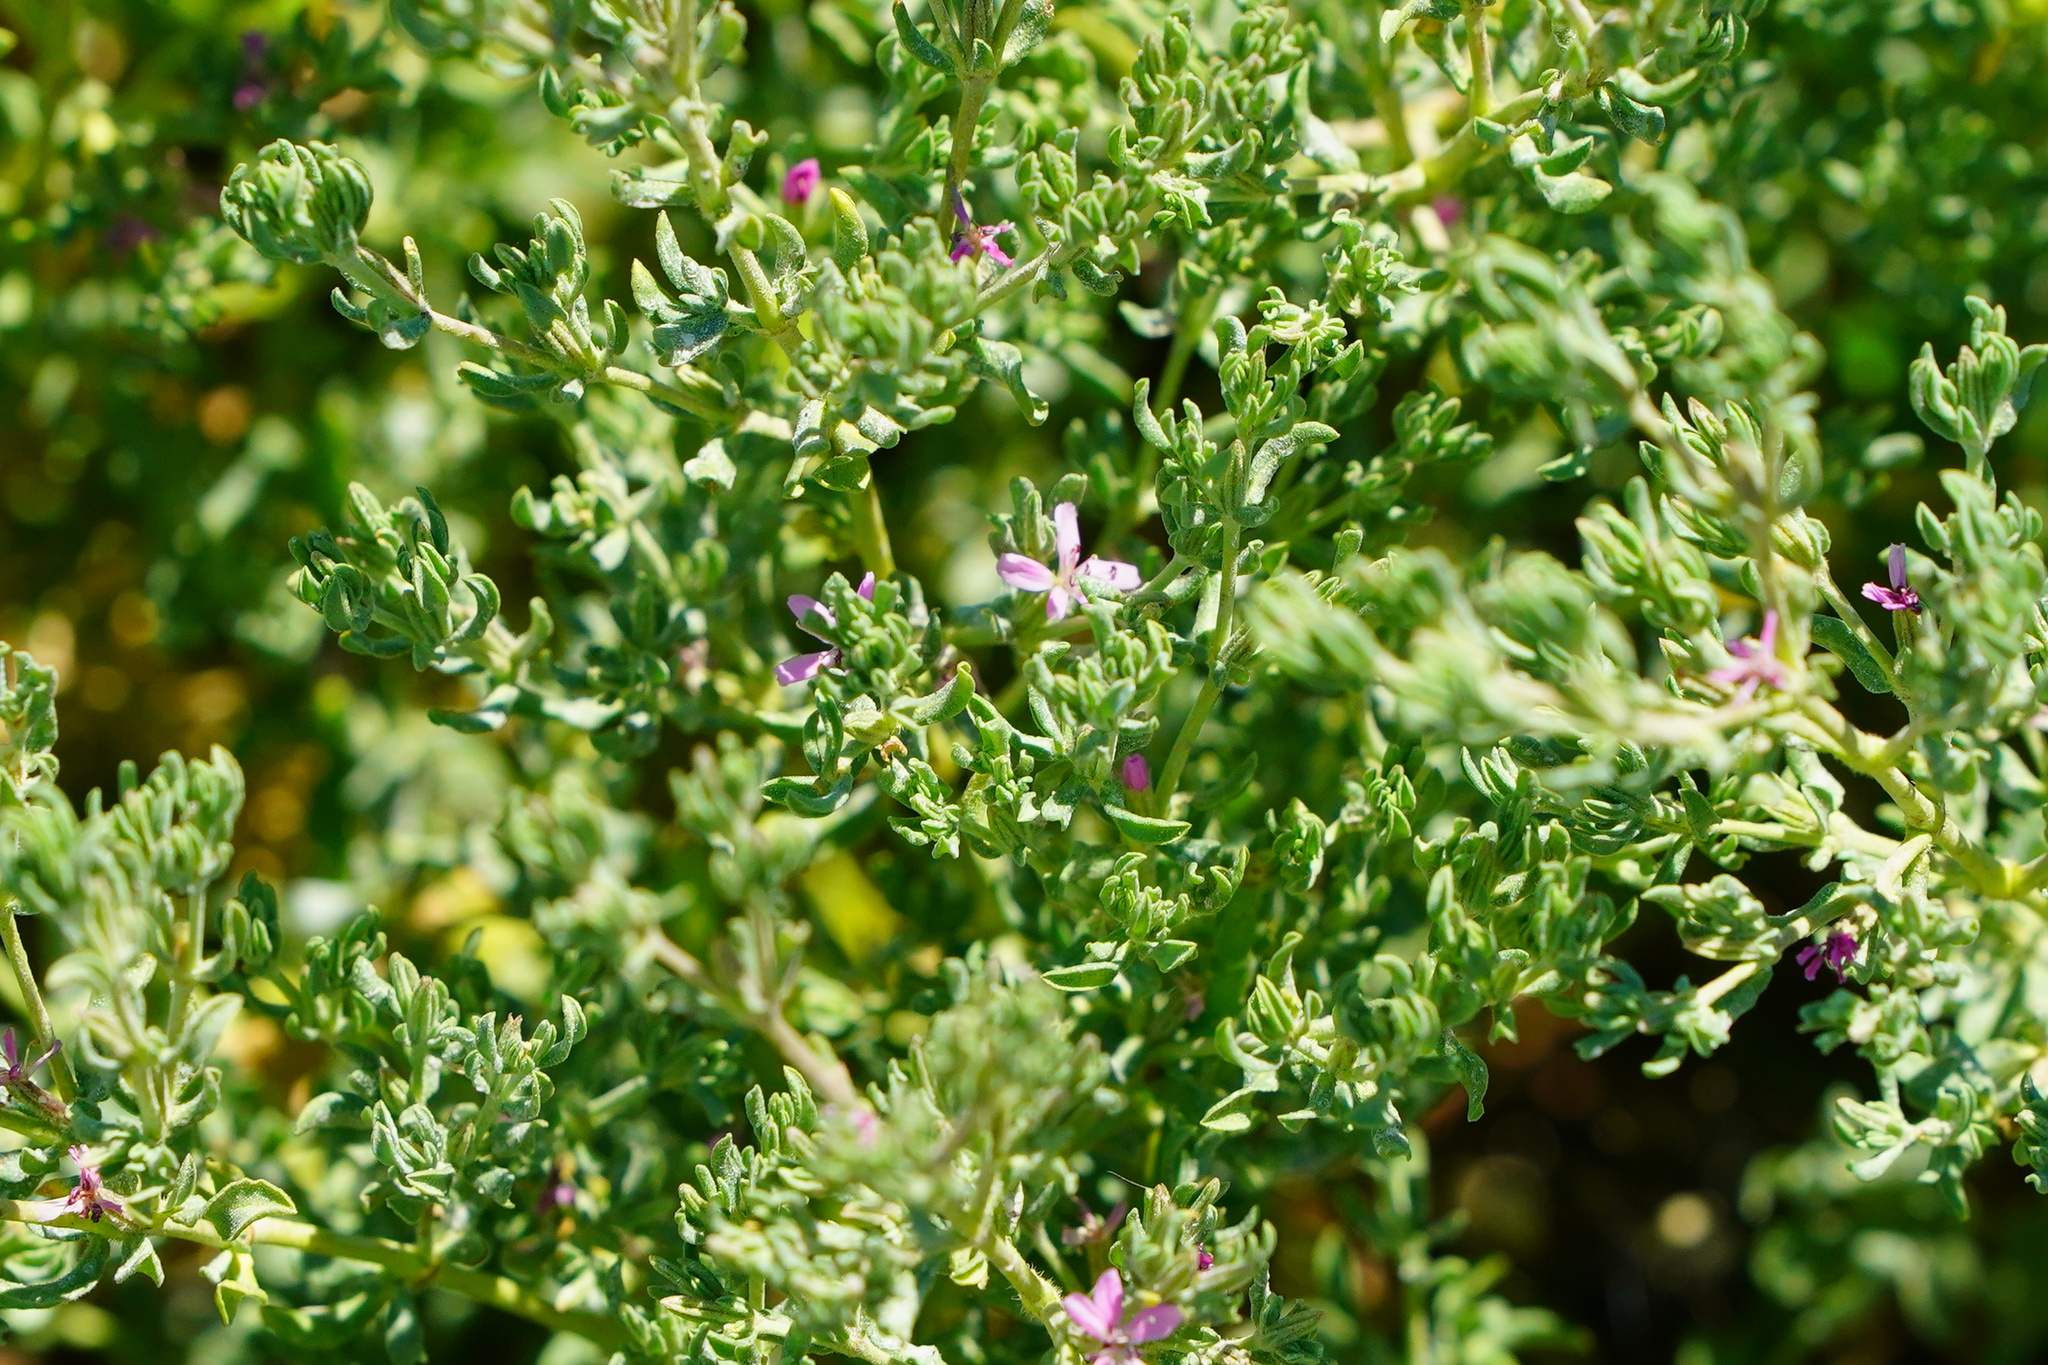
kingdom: Plantae
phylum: Tracheophyta
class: Magnoliopsida
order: Caryophyllales
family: Frankeniaceae
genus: Frankenia
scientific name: Frankenia salina
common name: Alkali seaheath
